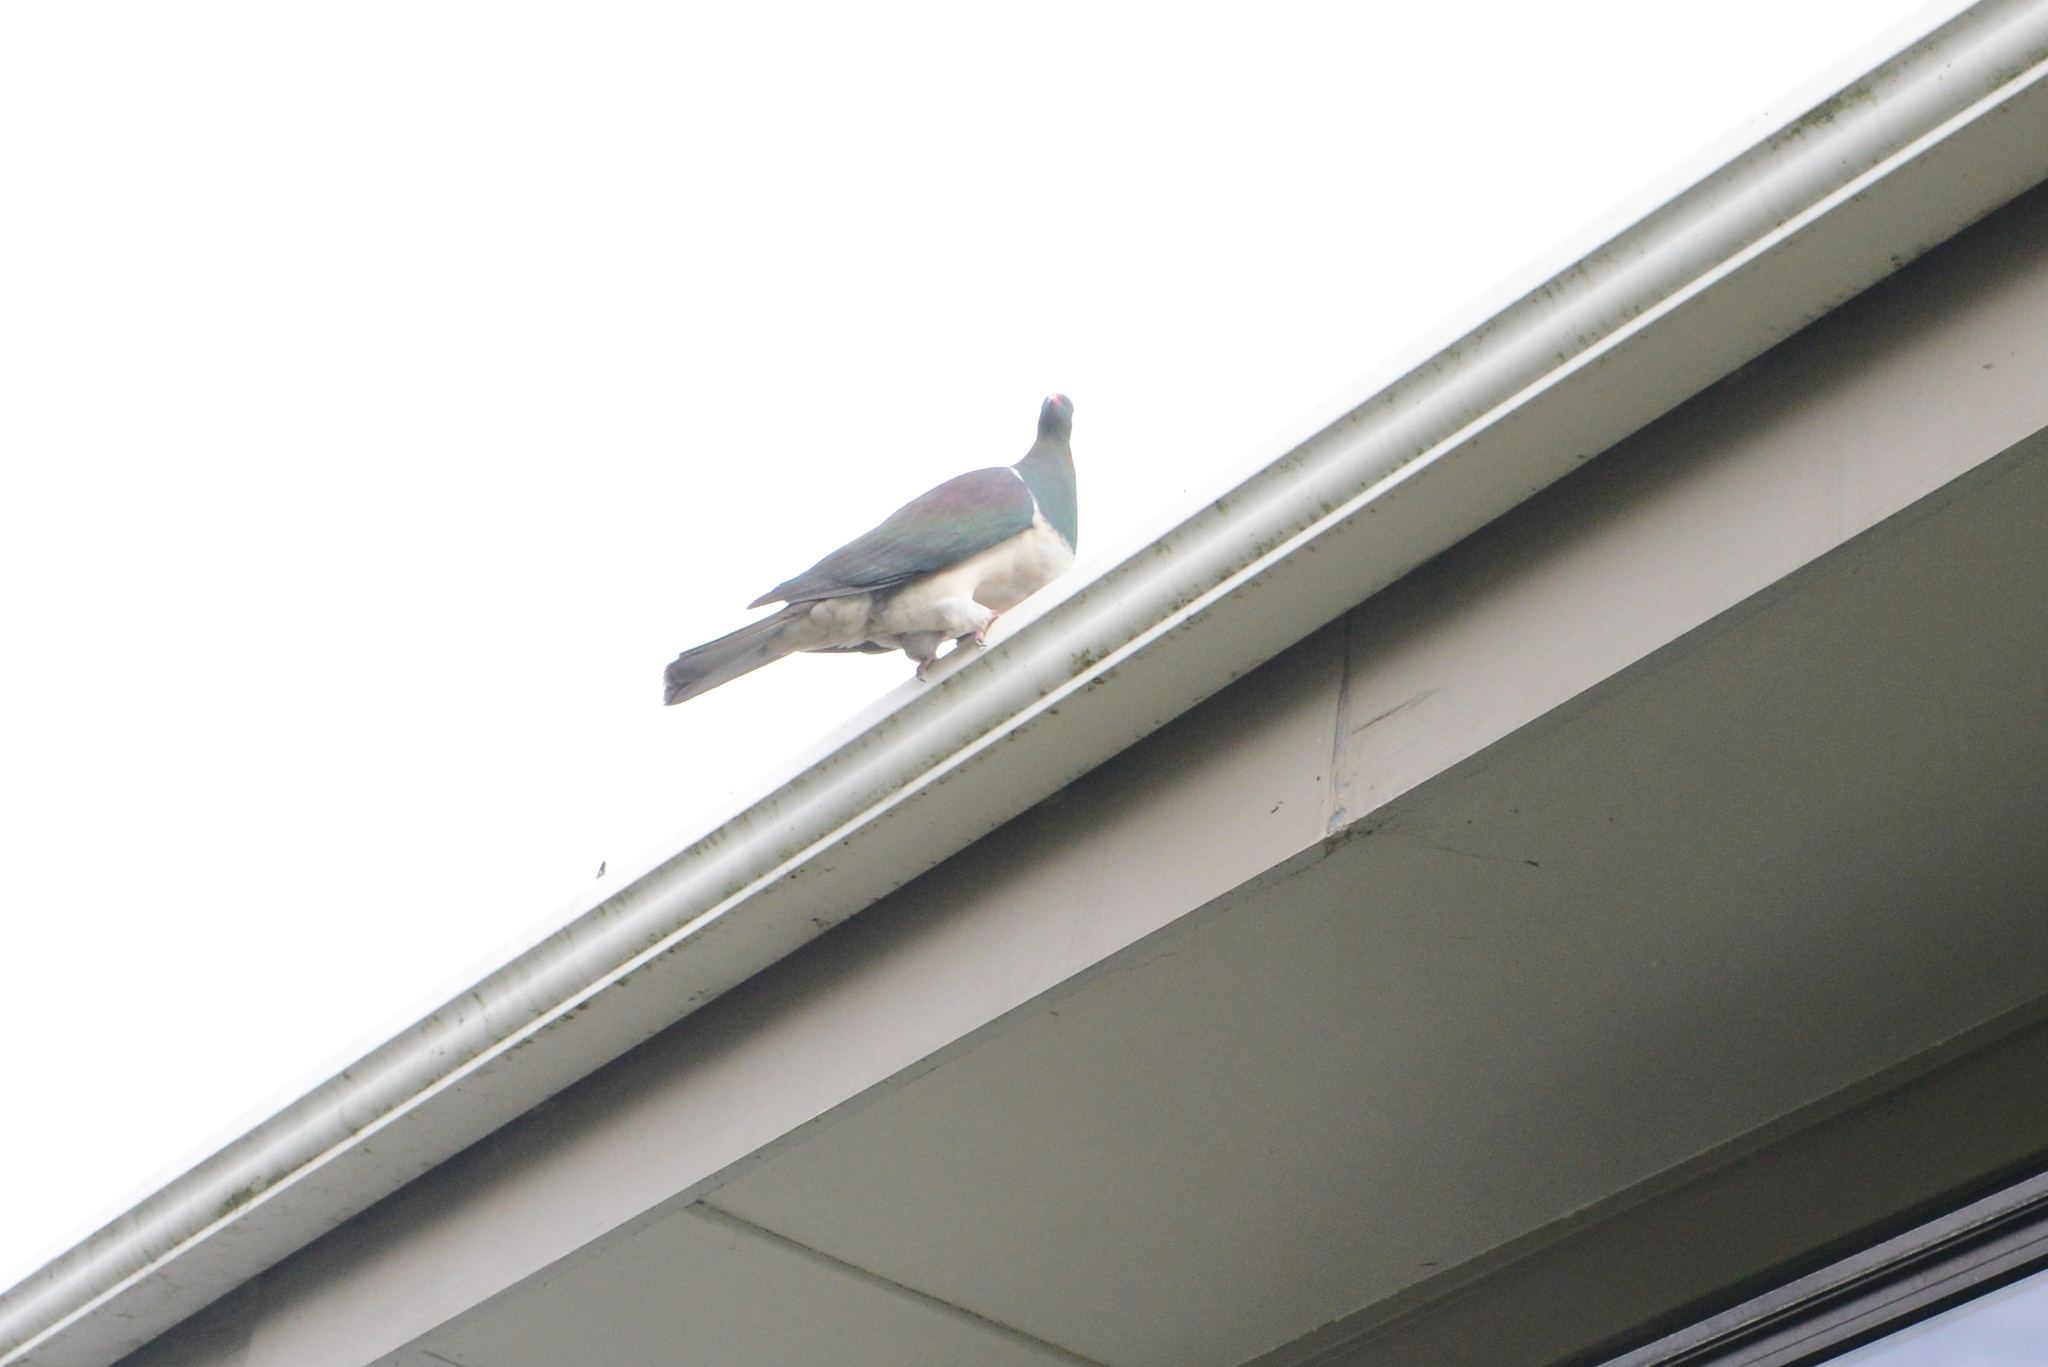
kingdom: Animalia
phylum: Chordata
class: Aves
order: Columbiformes
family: Columbidae
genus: Hemiphaga
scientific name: Hemiphaga novaeseelandiae
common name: New zealand pigeon
